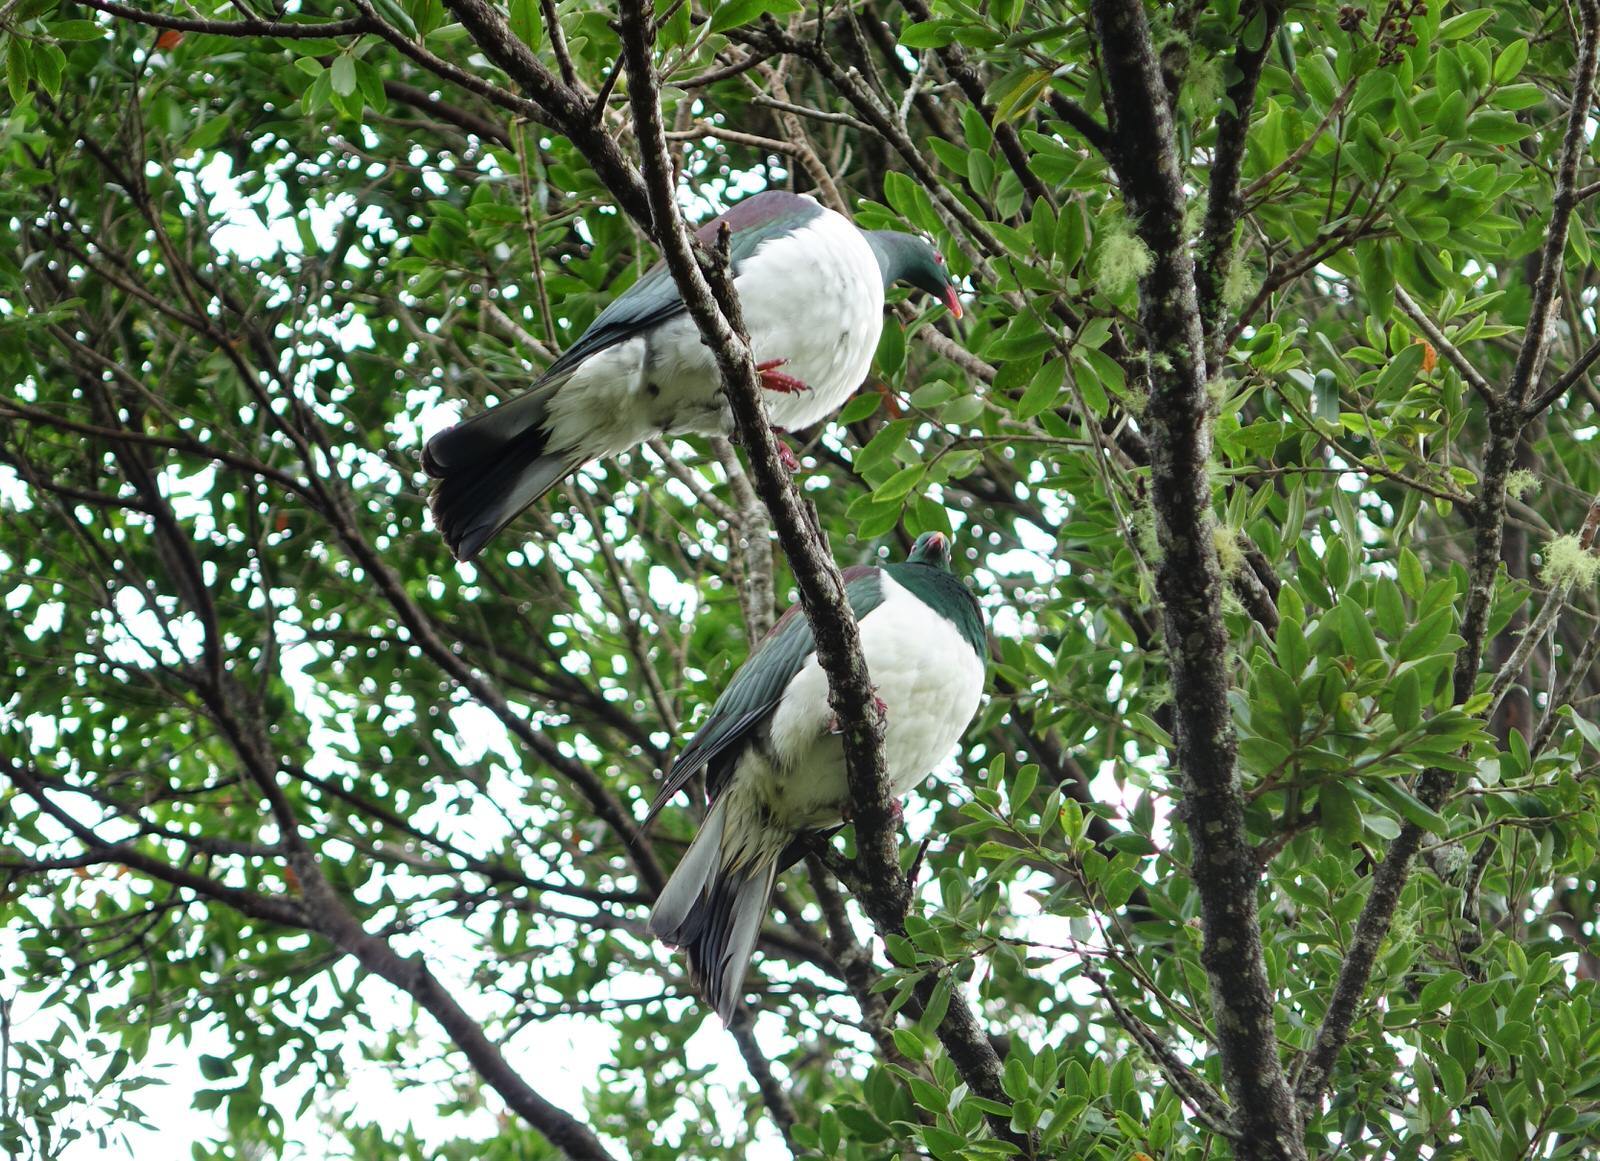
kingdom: Animalia
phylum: Chordata
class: Aves
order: Columbiformes
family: Columbidae
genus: Hemiphaga
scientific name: Hemiphaga novaeseelandiae
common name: New zealand pigeon
